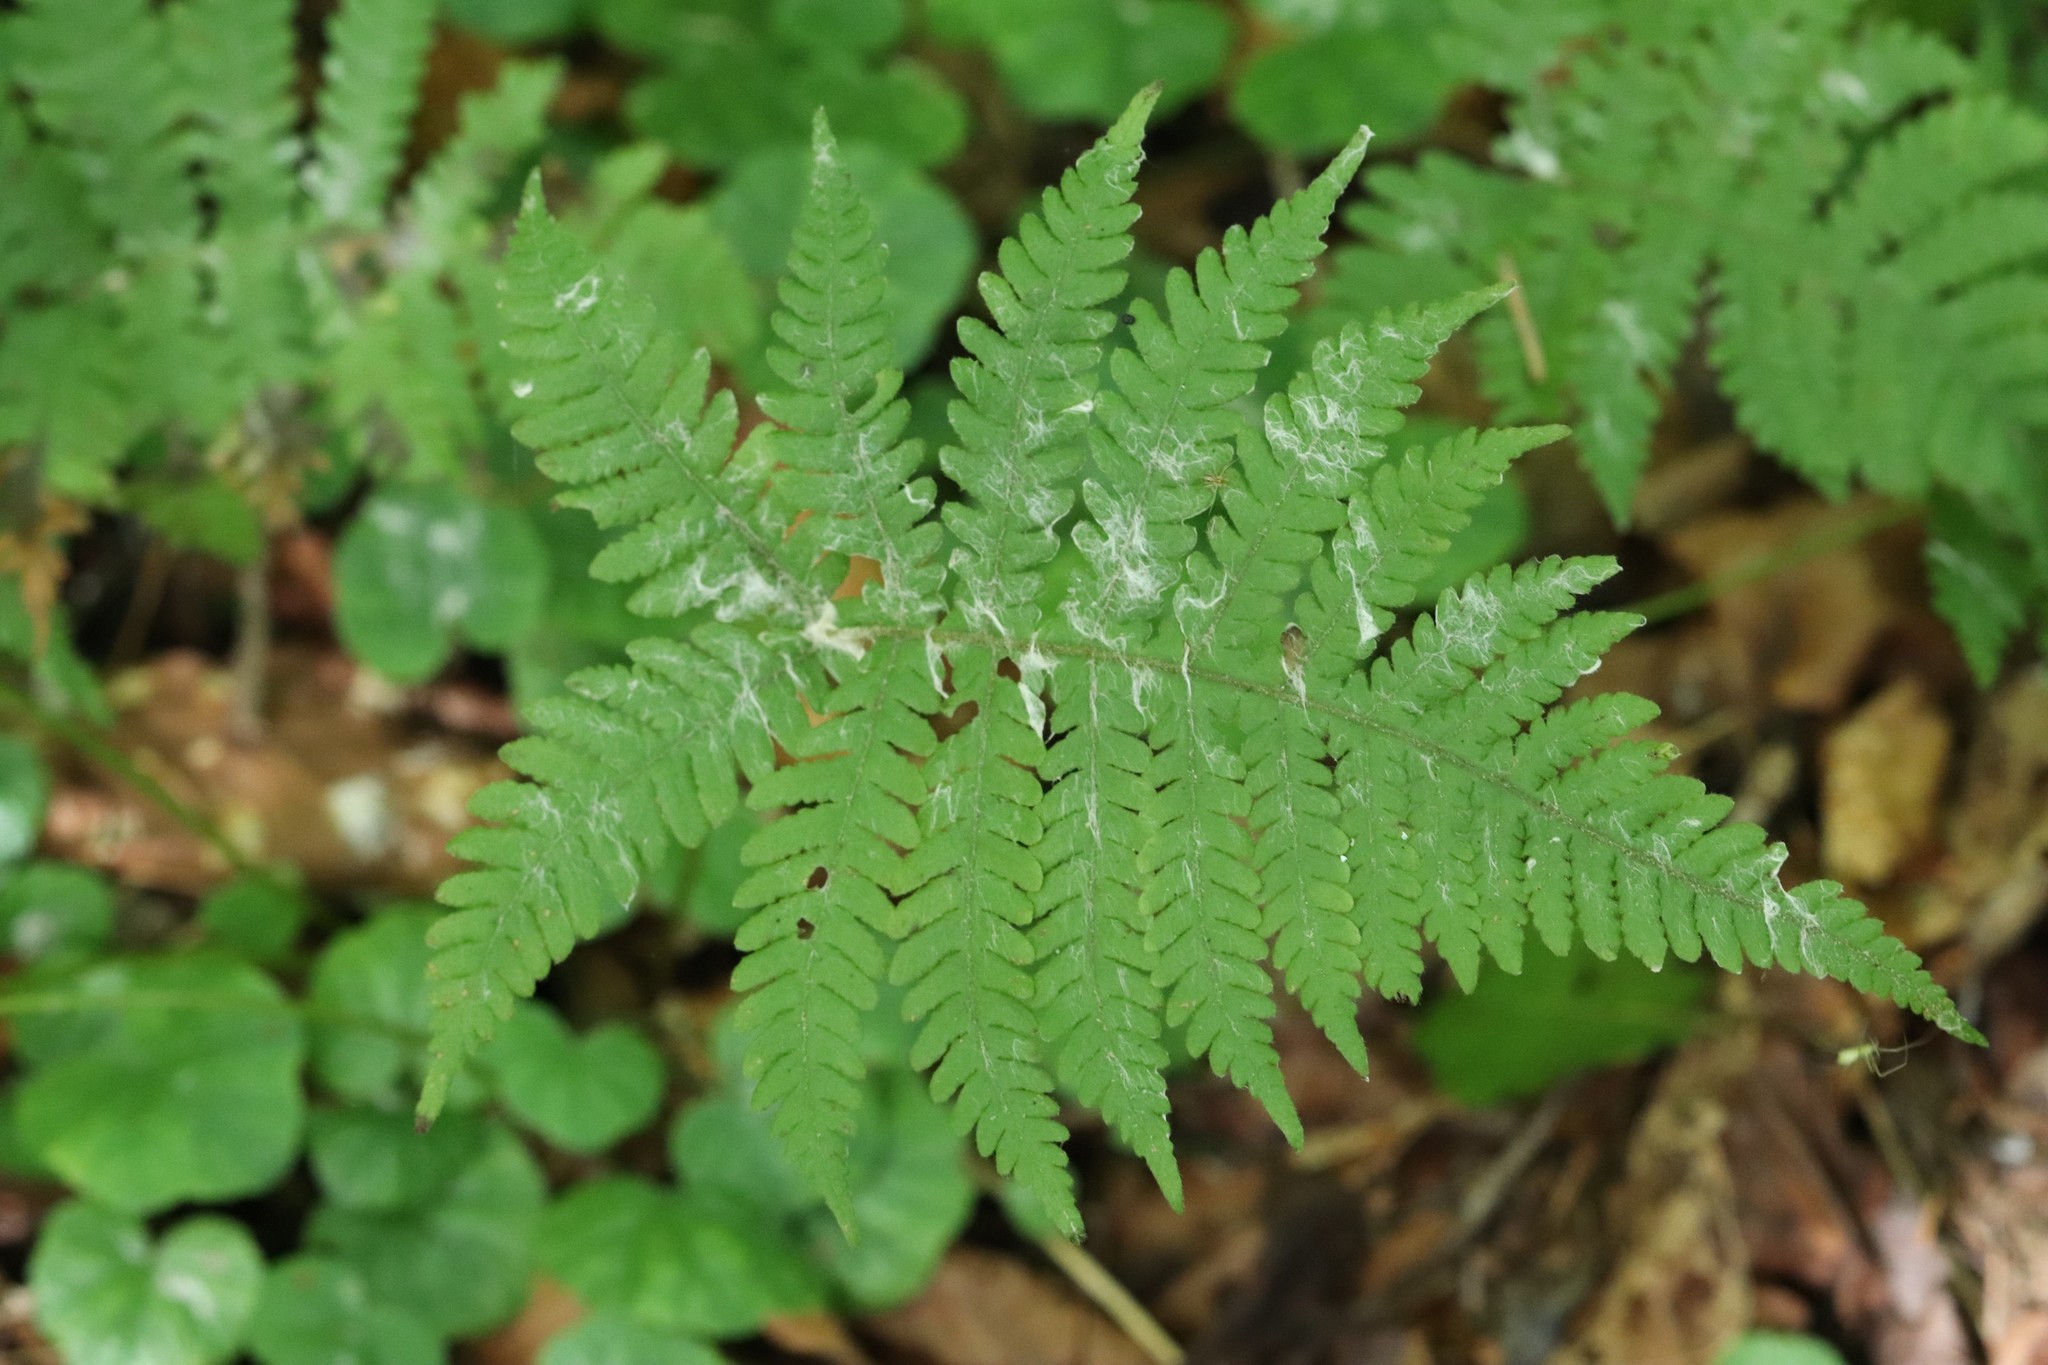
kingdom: Plantae
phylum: Tracheophyta
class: Polypodiopsida
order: Polypodiales
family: Thelypteridaceae
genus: Phegopteris
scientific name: Phegopteris connectilis
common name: Beech fern
